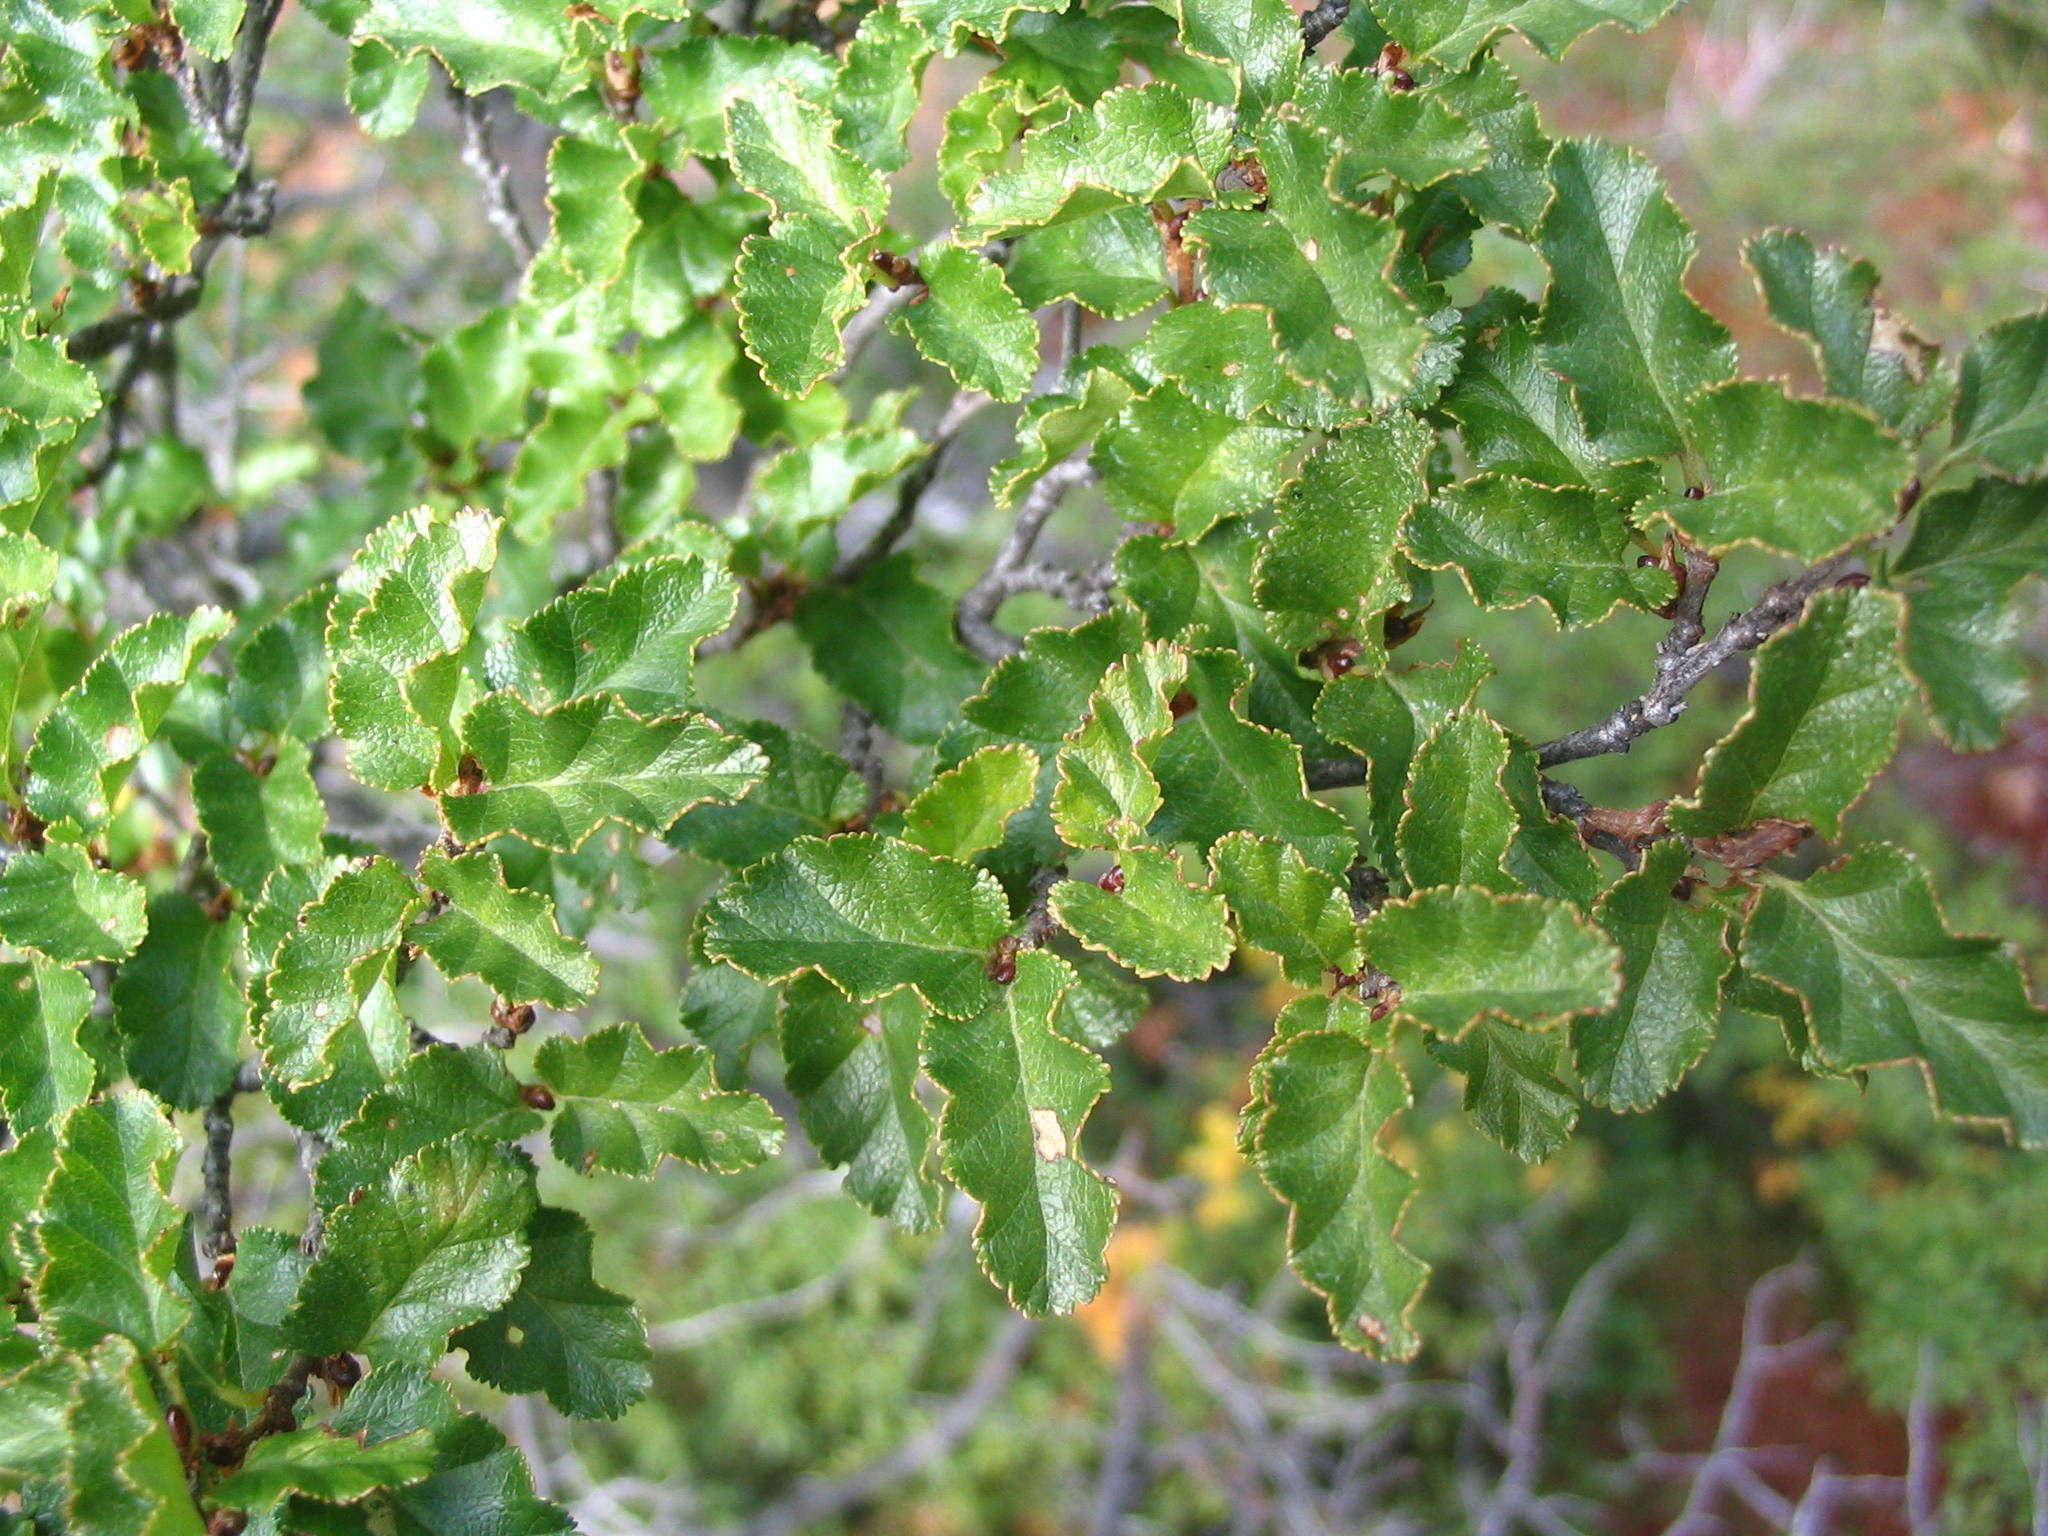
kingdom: Plantae
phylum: Tracheophyta
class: Magnoliopsida
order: Fagales
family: Nothofagaceae
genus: Nothofagus
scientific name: Nothofagus antarctica
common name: Antarctic beech
